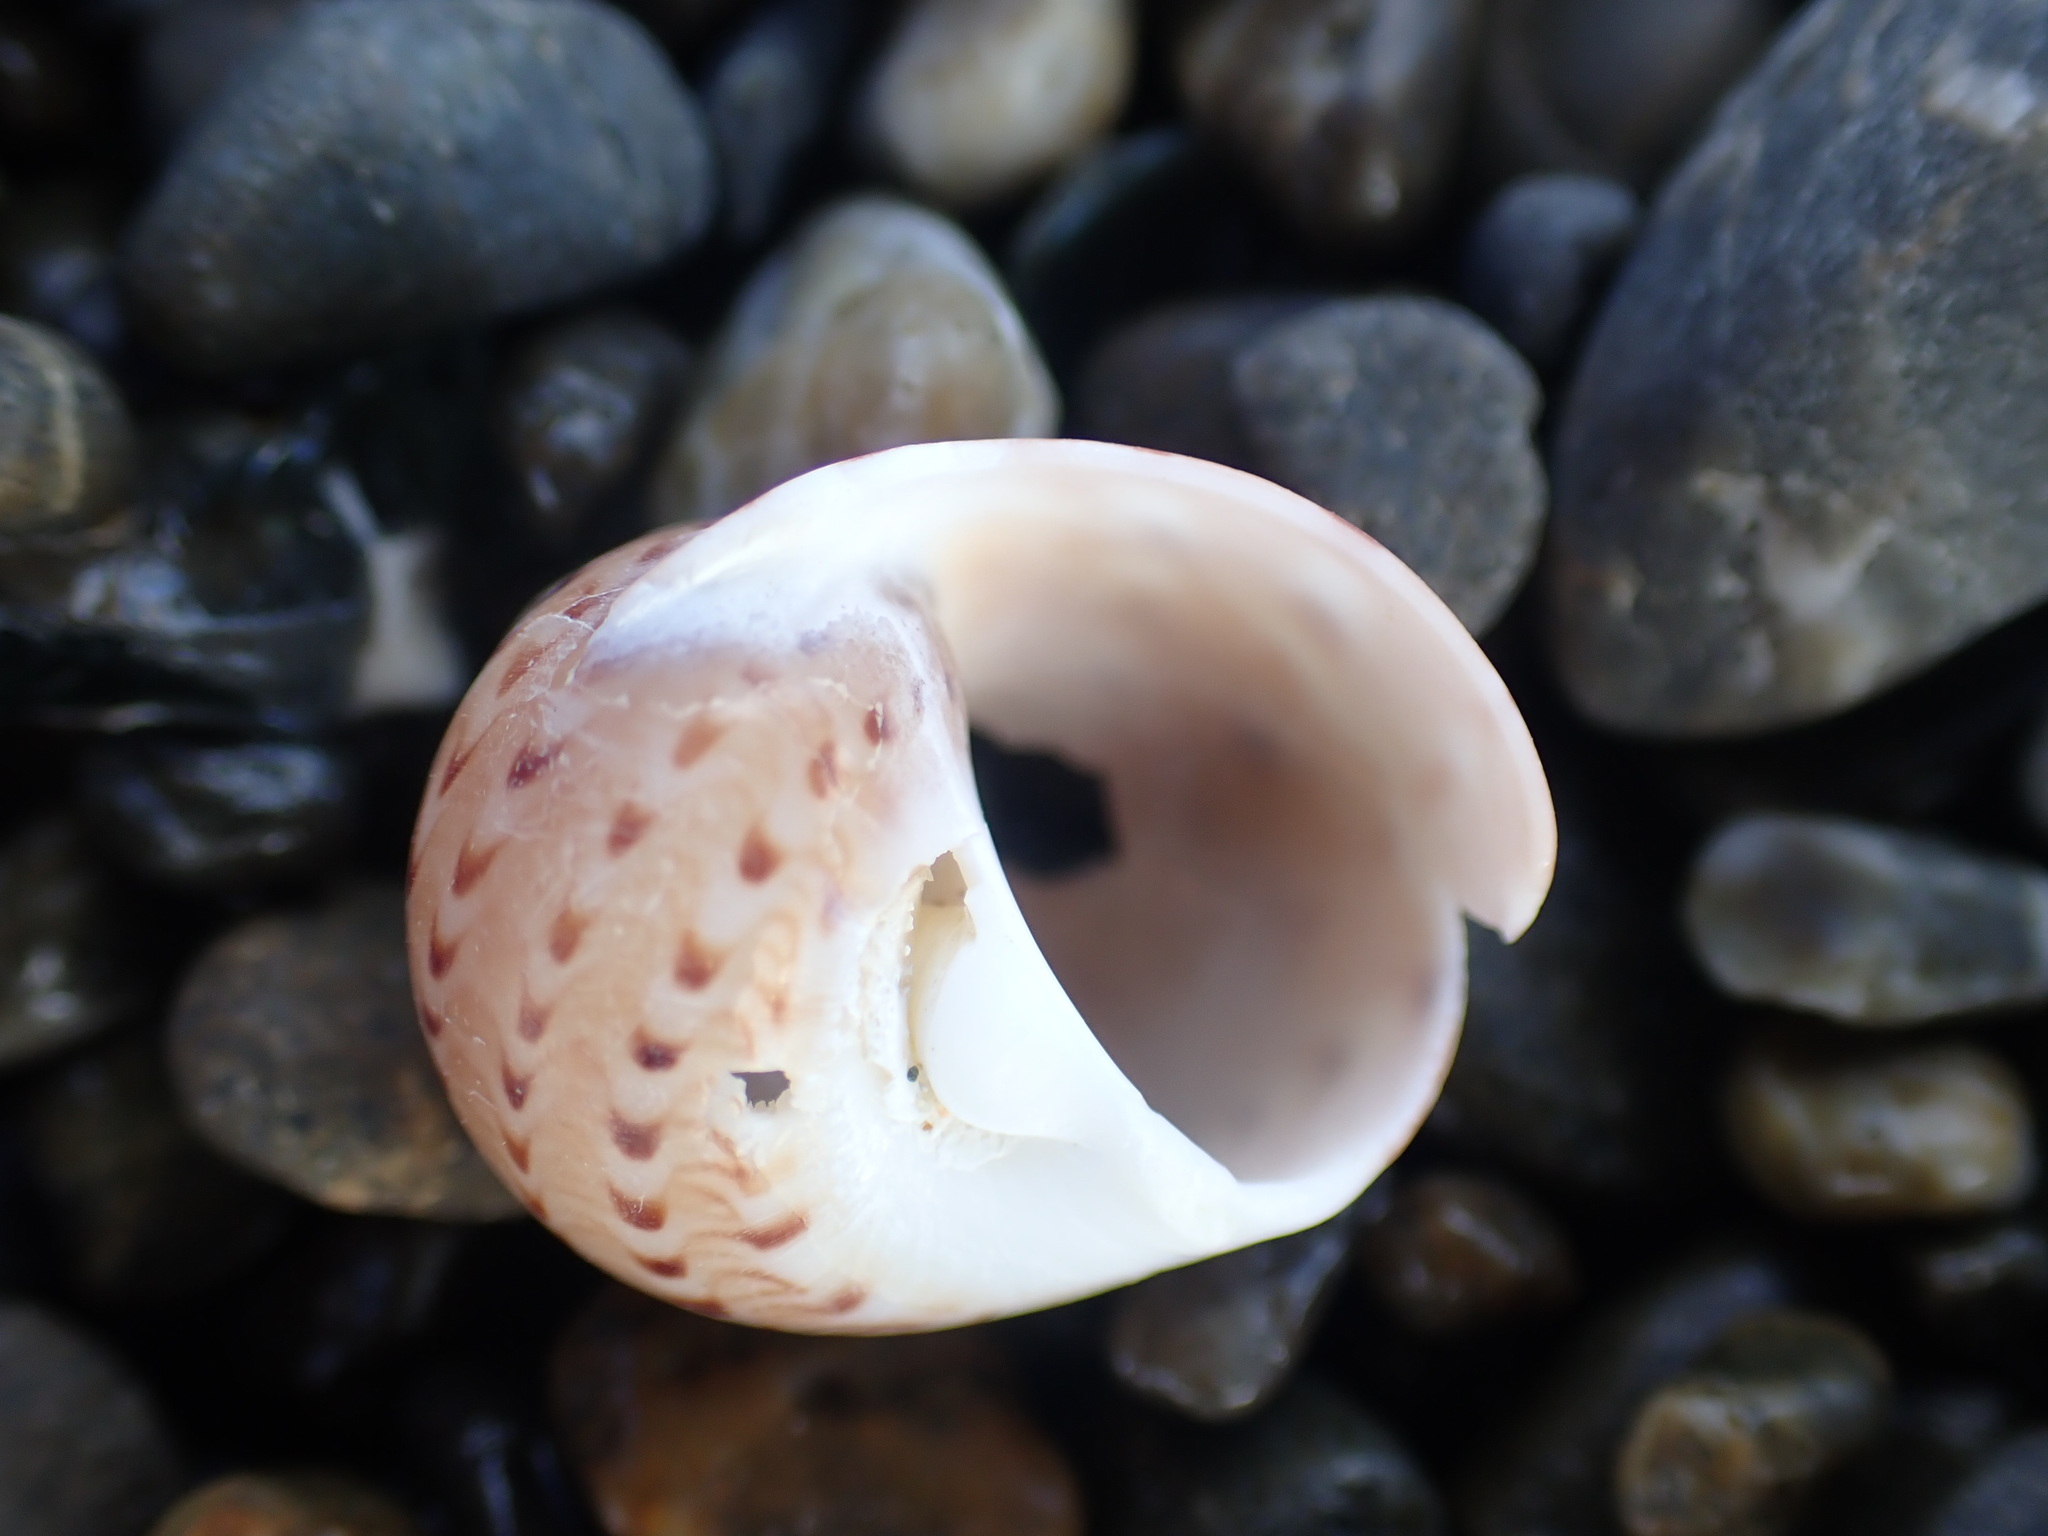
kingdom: Animalia
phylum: Mollusca
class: Gastropoda
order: Littorinimorpha
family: Naticidae
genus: Tanea
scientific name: Tanea zelandica
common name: New zealand moonsnail
